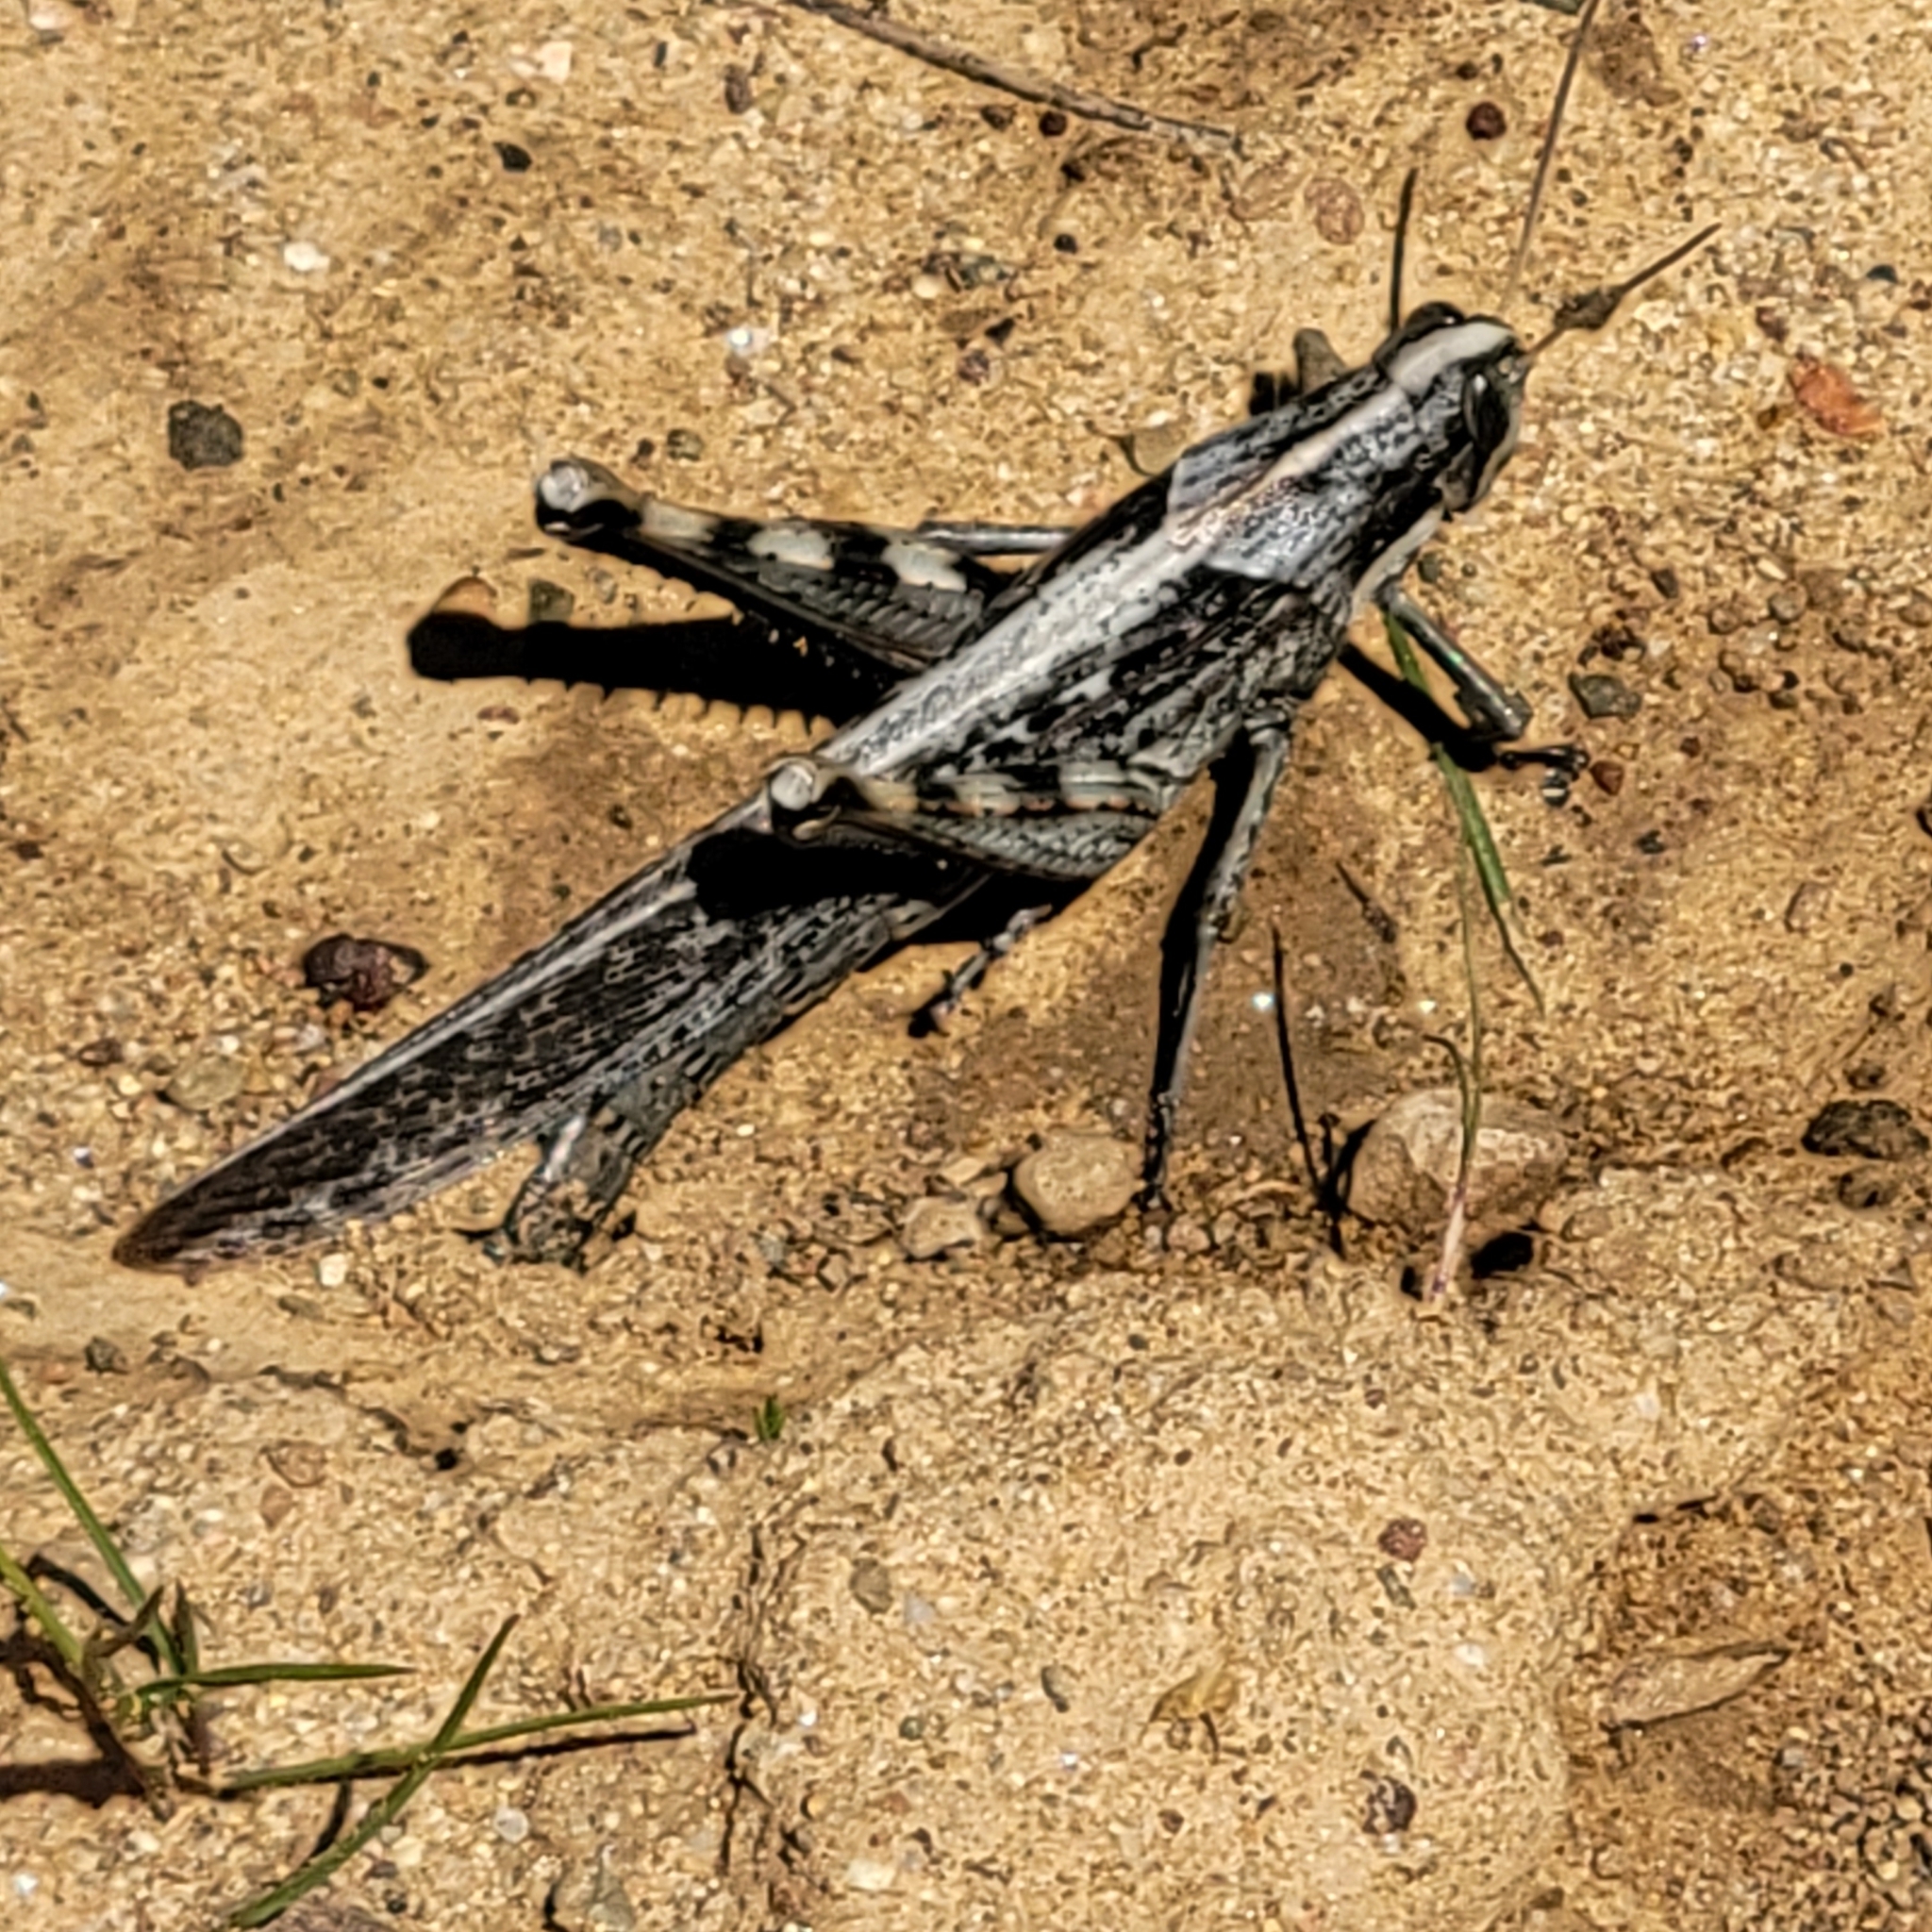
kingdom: Animalia
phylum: Arthropoda
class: Insecta
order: Orthoptera
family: Acrididae
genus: Schistocerca
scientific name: Schistocerca nitens
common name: Vagrant grasshopper
